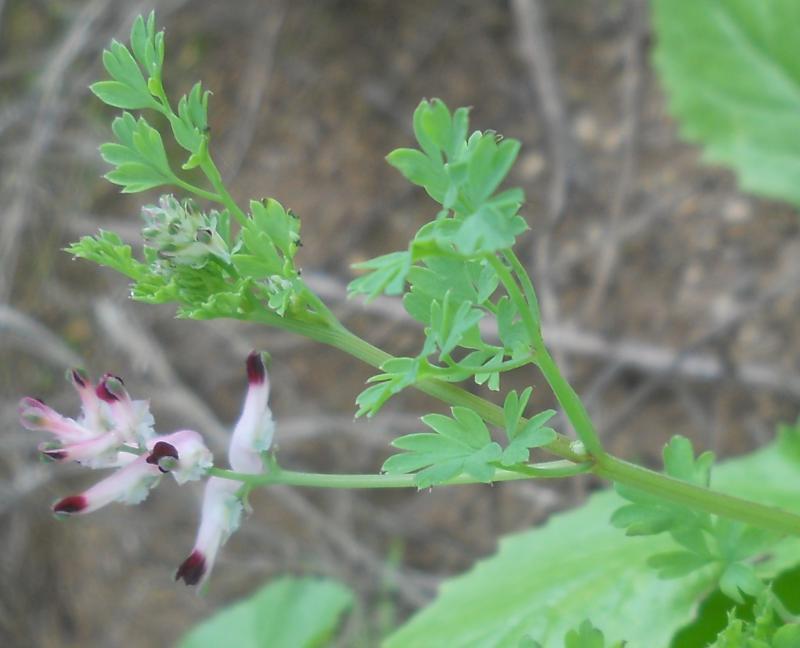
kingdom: Plantae
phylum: Tracheophyta
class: Magnoliopsida
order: Ranunculales
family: Papaveraceae
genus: Fumaria
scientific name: Fumaria capreolata
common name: White ramping-fumitory
